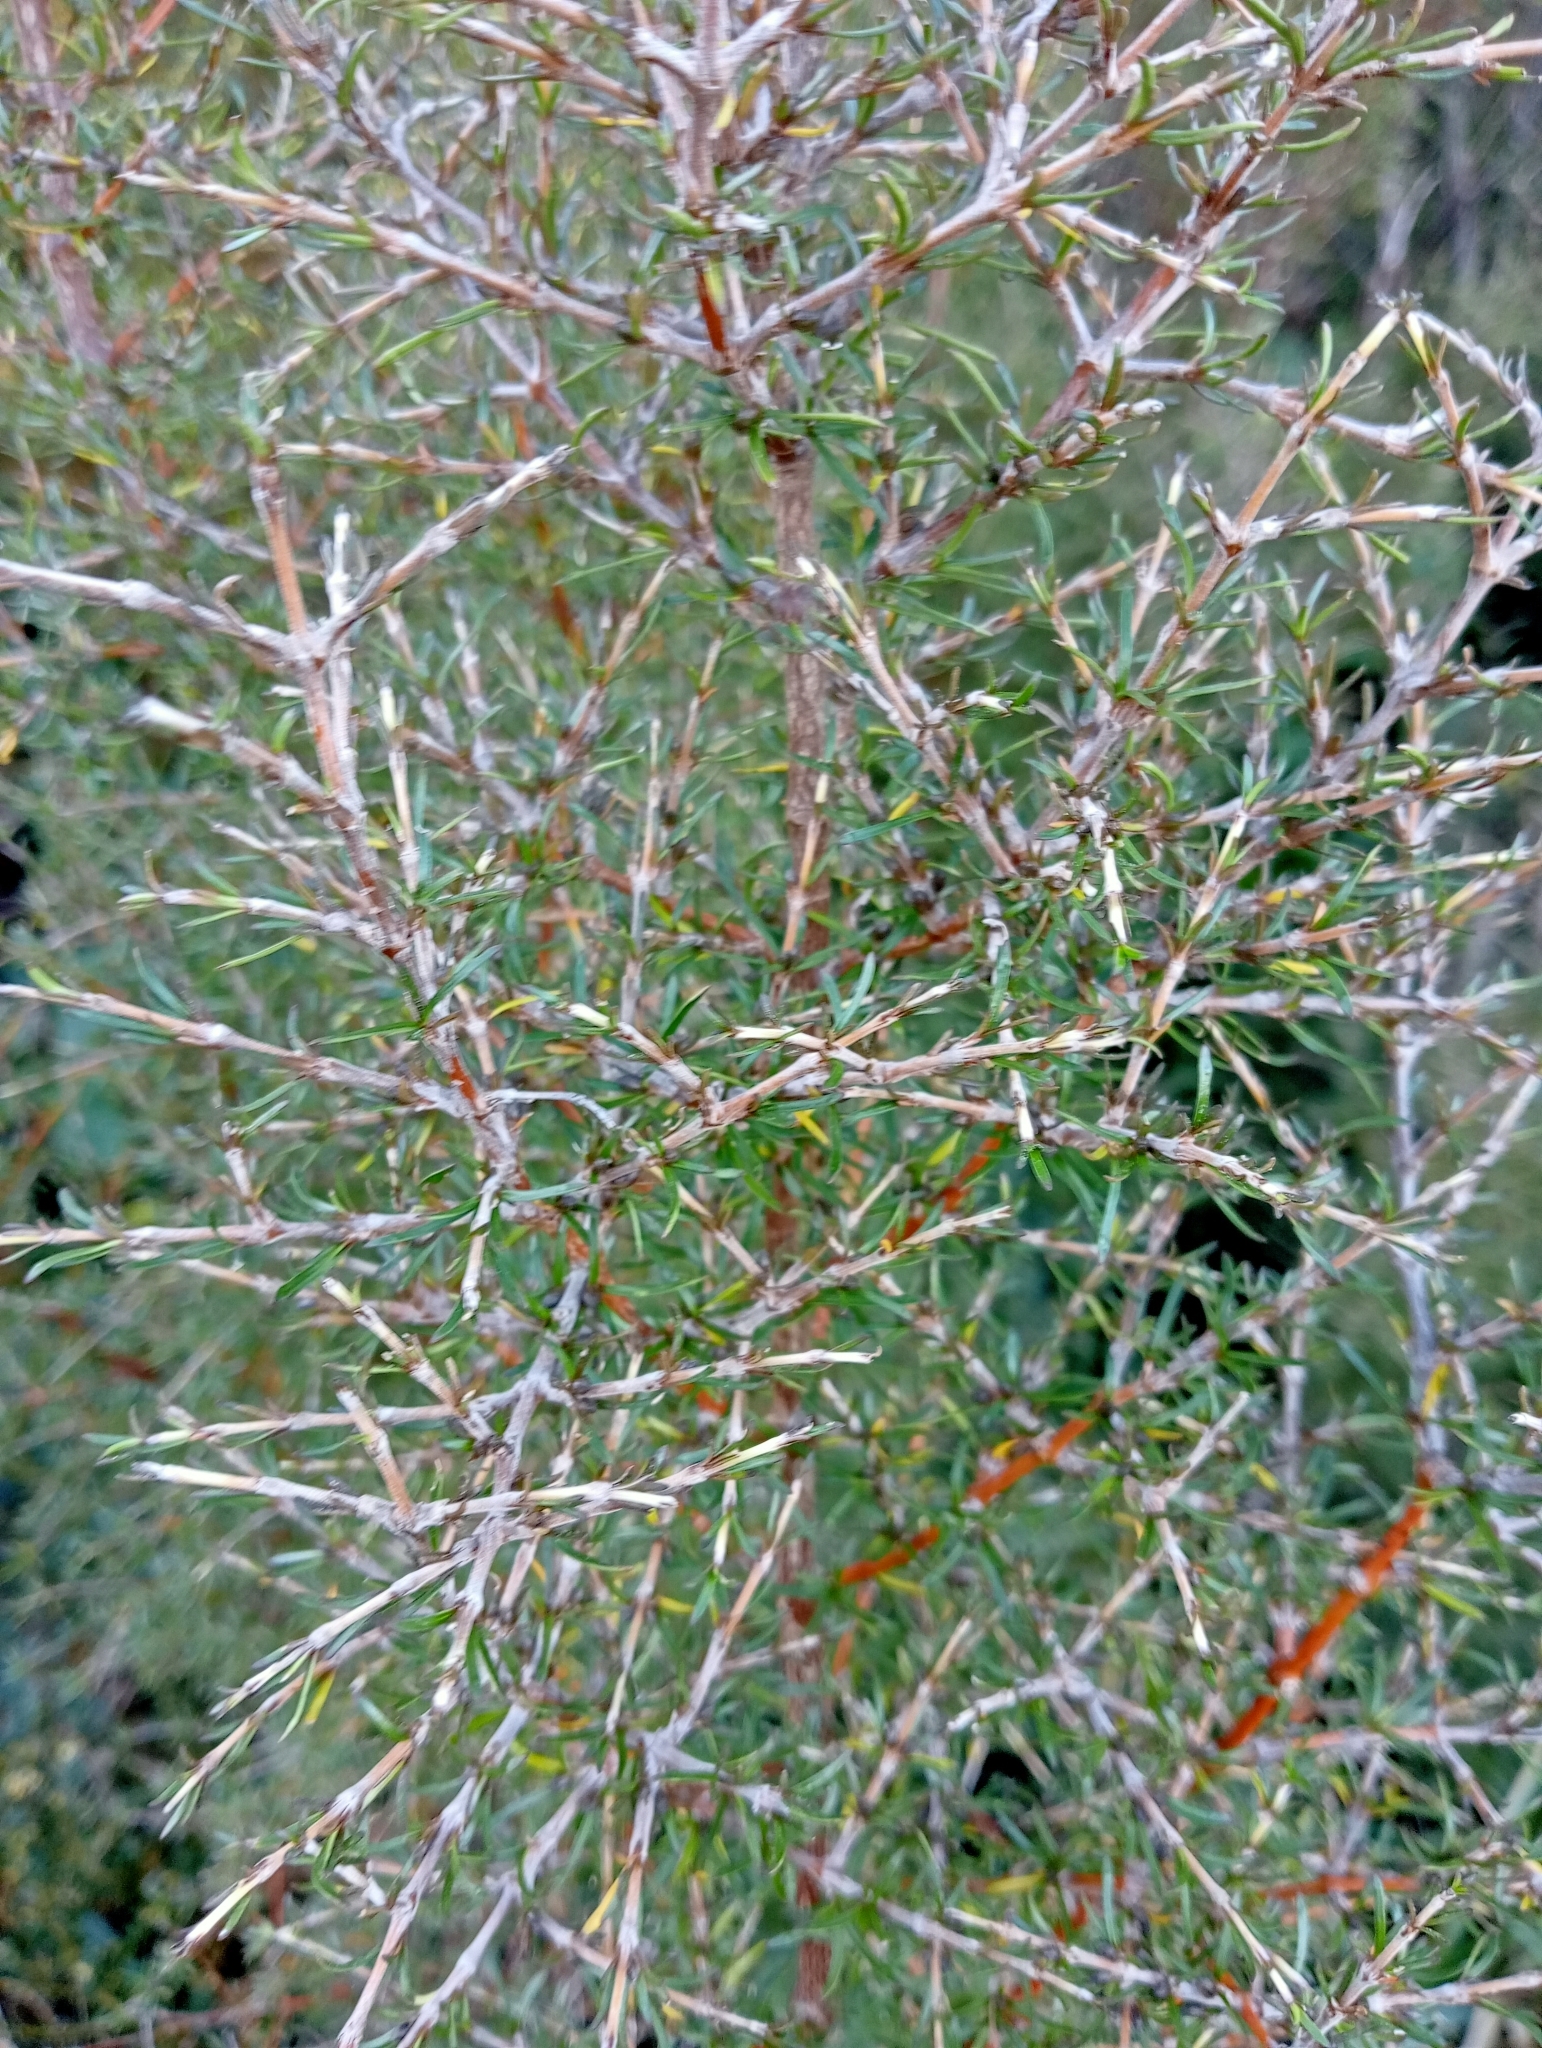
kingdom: Plantae
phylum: Tracheophyta
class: Magnoliopsida
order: Gentianales
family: Rubiaceae
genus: Coprosma
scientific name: Coprosma rugosa
